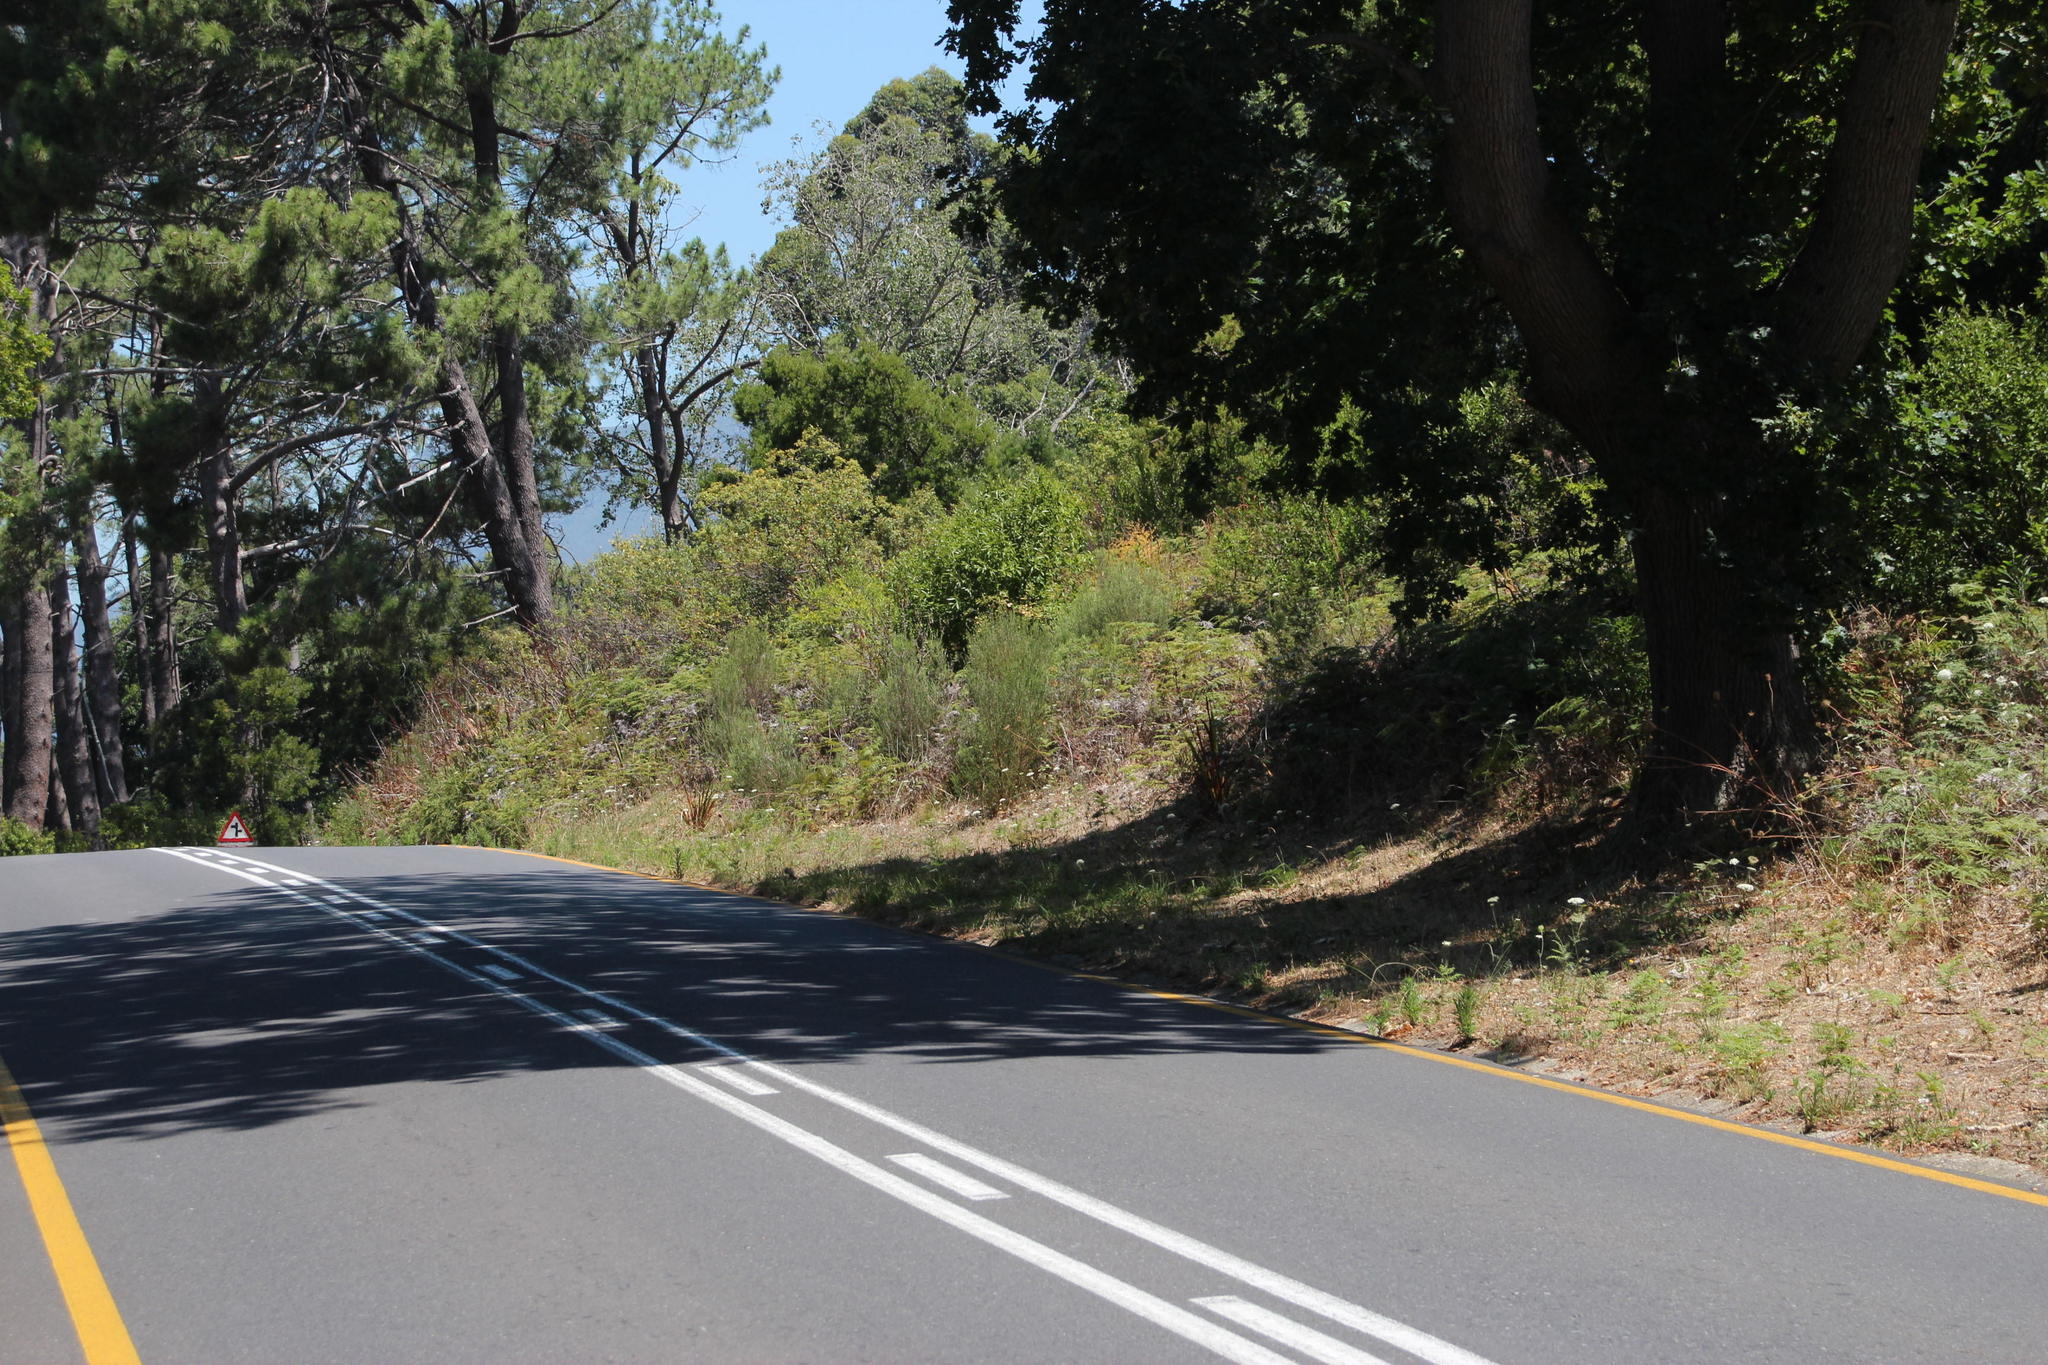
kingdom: Plantae
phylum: Tracheophyta
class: Magnoliopsida
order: Apiales
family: Apiaceae
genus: Daucus
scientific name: Daucus carota
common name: Wild carrot
